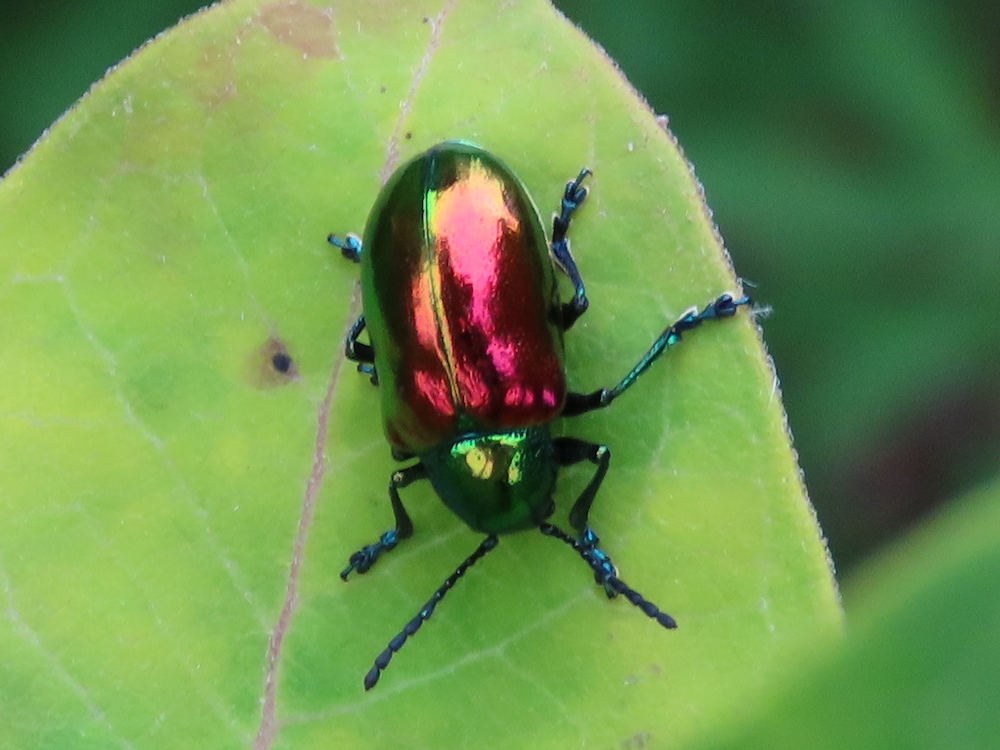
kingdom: Animalia
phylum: Arthropoda
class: Insecta
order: Coleoptera
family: Chrysomelidae
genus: Chrysochus
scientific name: Chrysochus auratus
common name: Dogbane leaf beetle
